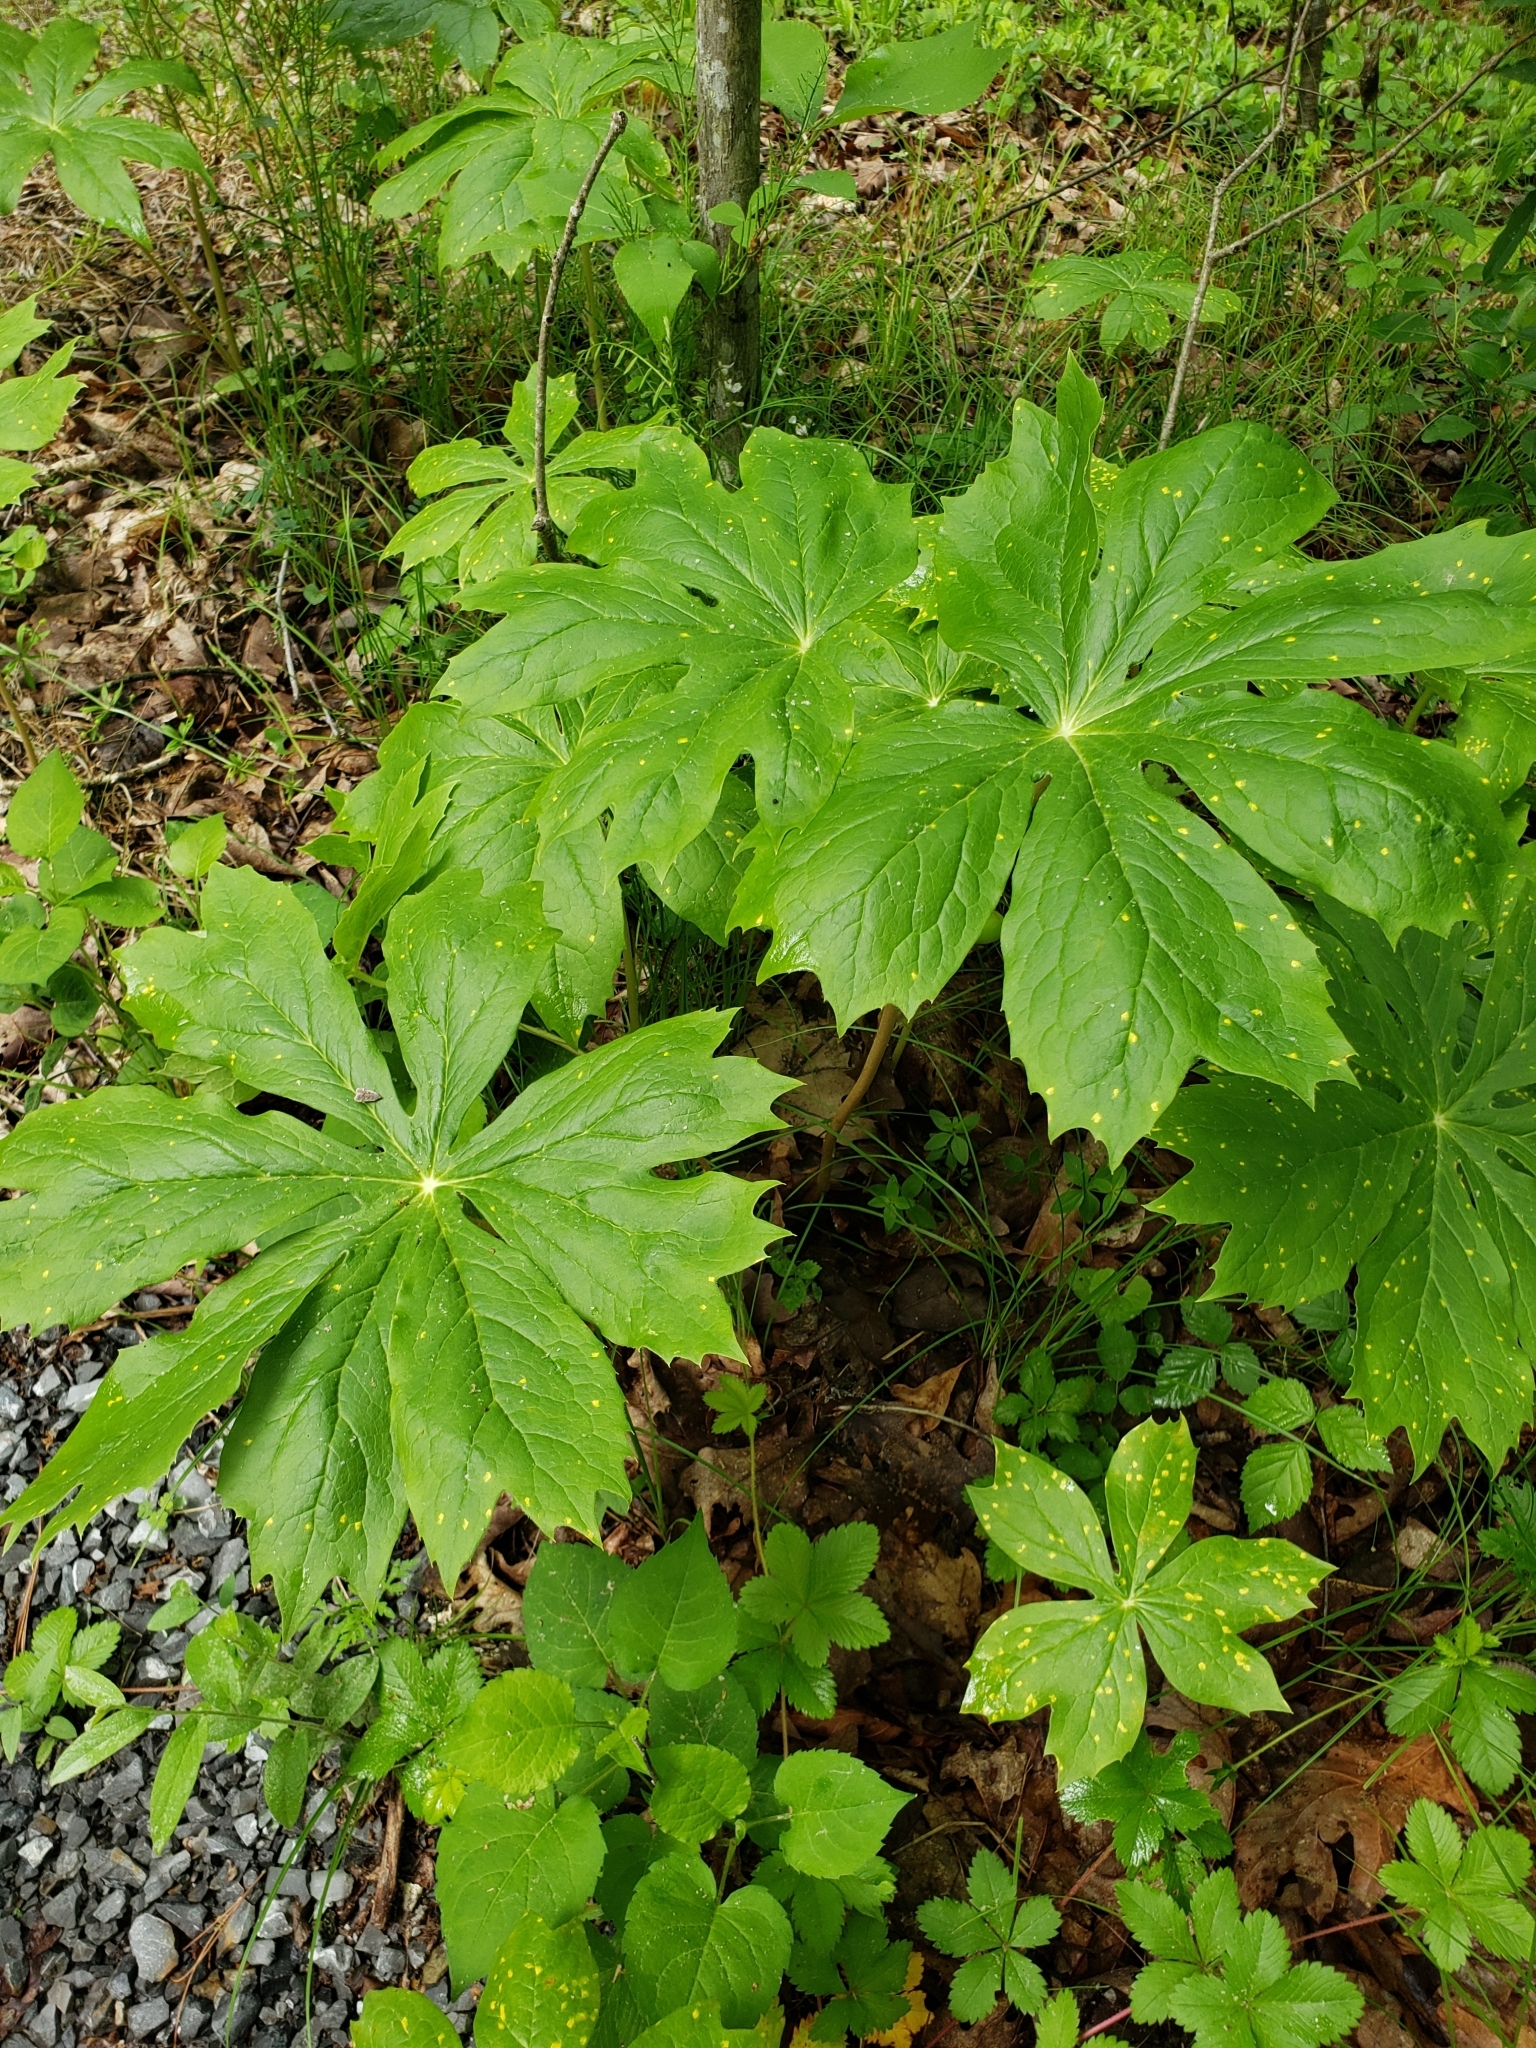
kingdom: Plantae
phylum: Tracheophyta
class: Magnoliopsida
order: Ranunculales
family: Berberidaceae
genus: Podophyllum
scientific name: Podophyllum peltatum
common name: Wild mandrake
